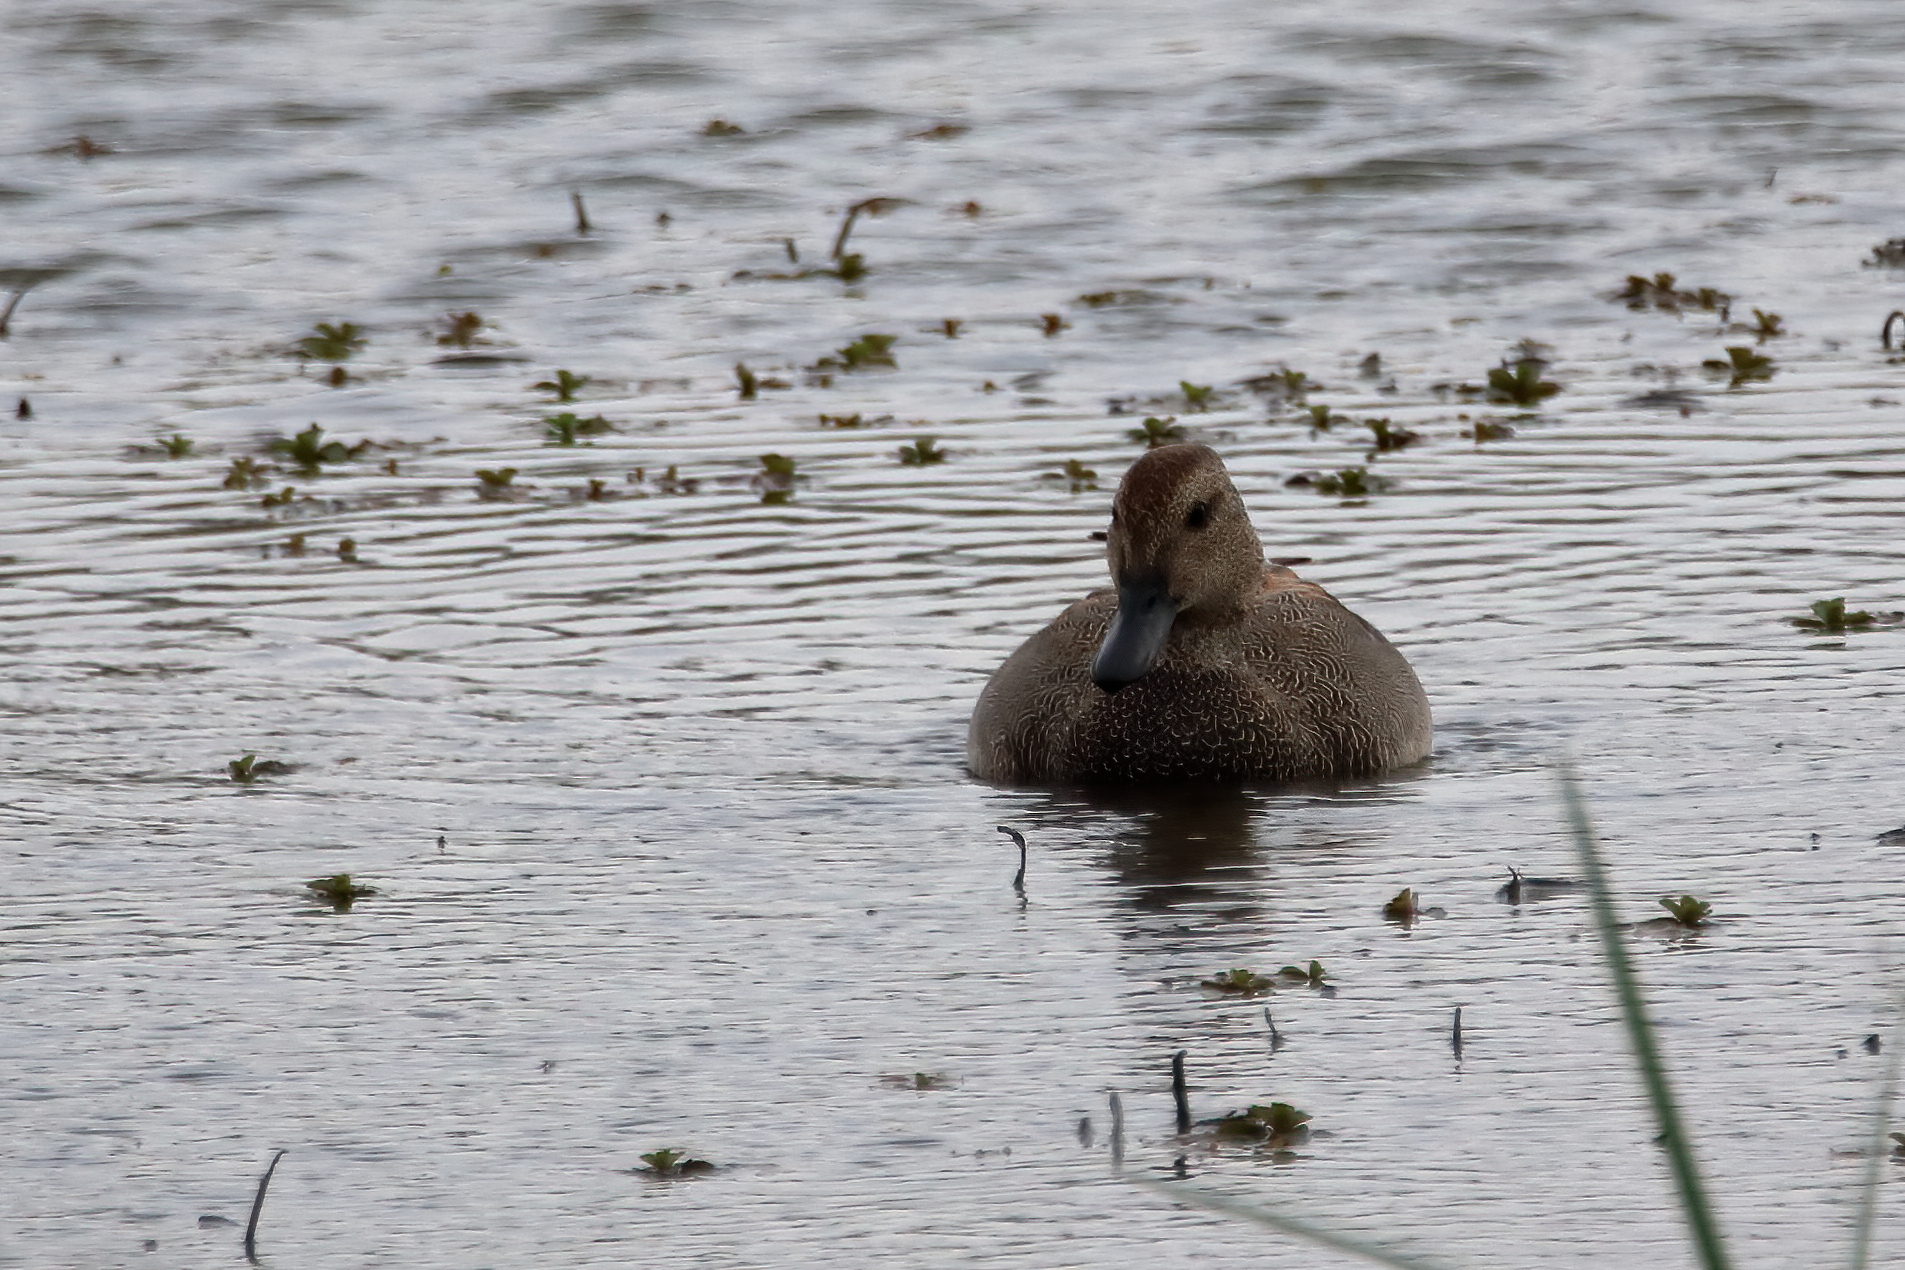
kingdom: Animalia
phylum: Chordata
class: Aves
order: Anseriformes
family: Anatidae
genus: Mareca
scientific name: Mareca strepera
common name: Gadwall
